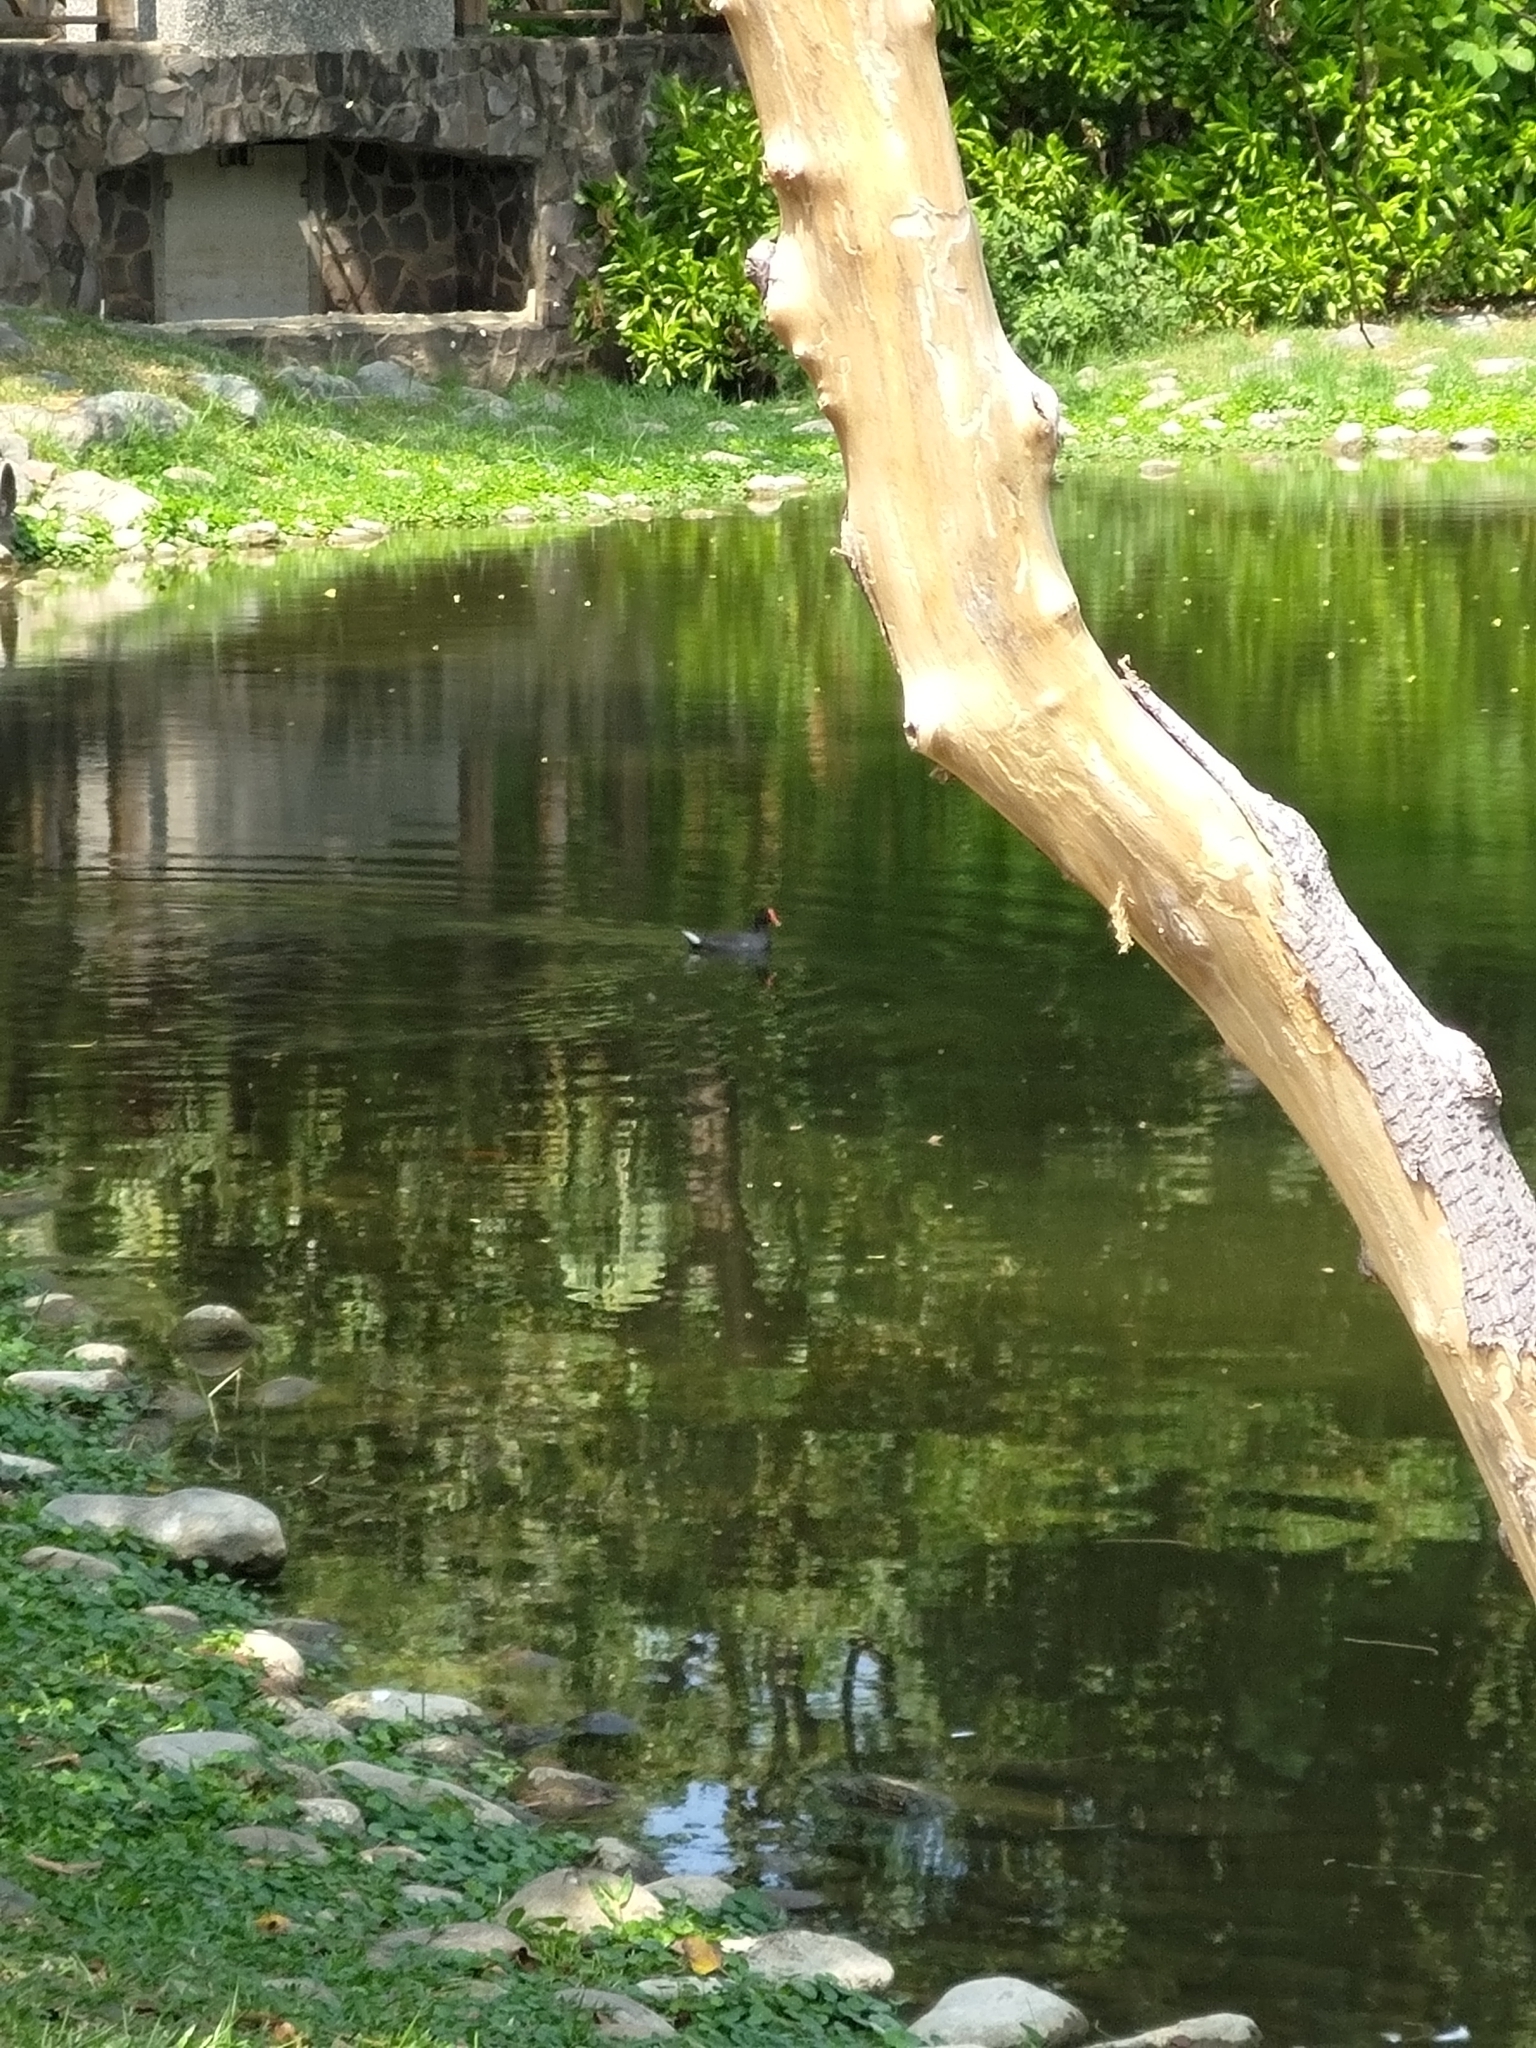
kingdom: Animalia
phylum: Chordata
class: Aves
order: Gruiformes
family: Rallidae
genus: Gallinula
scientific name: Gallinula chloropus
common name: Common moorhen
